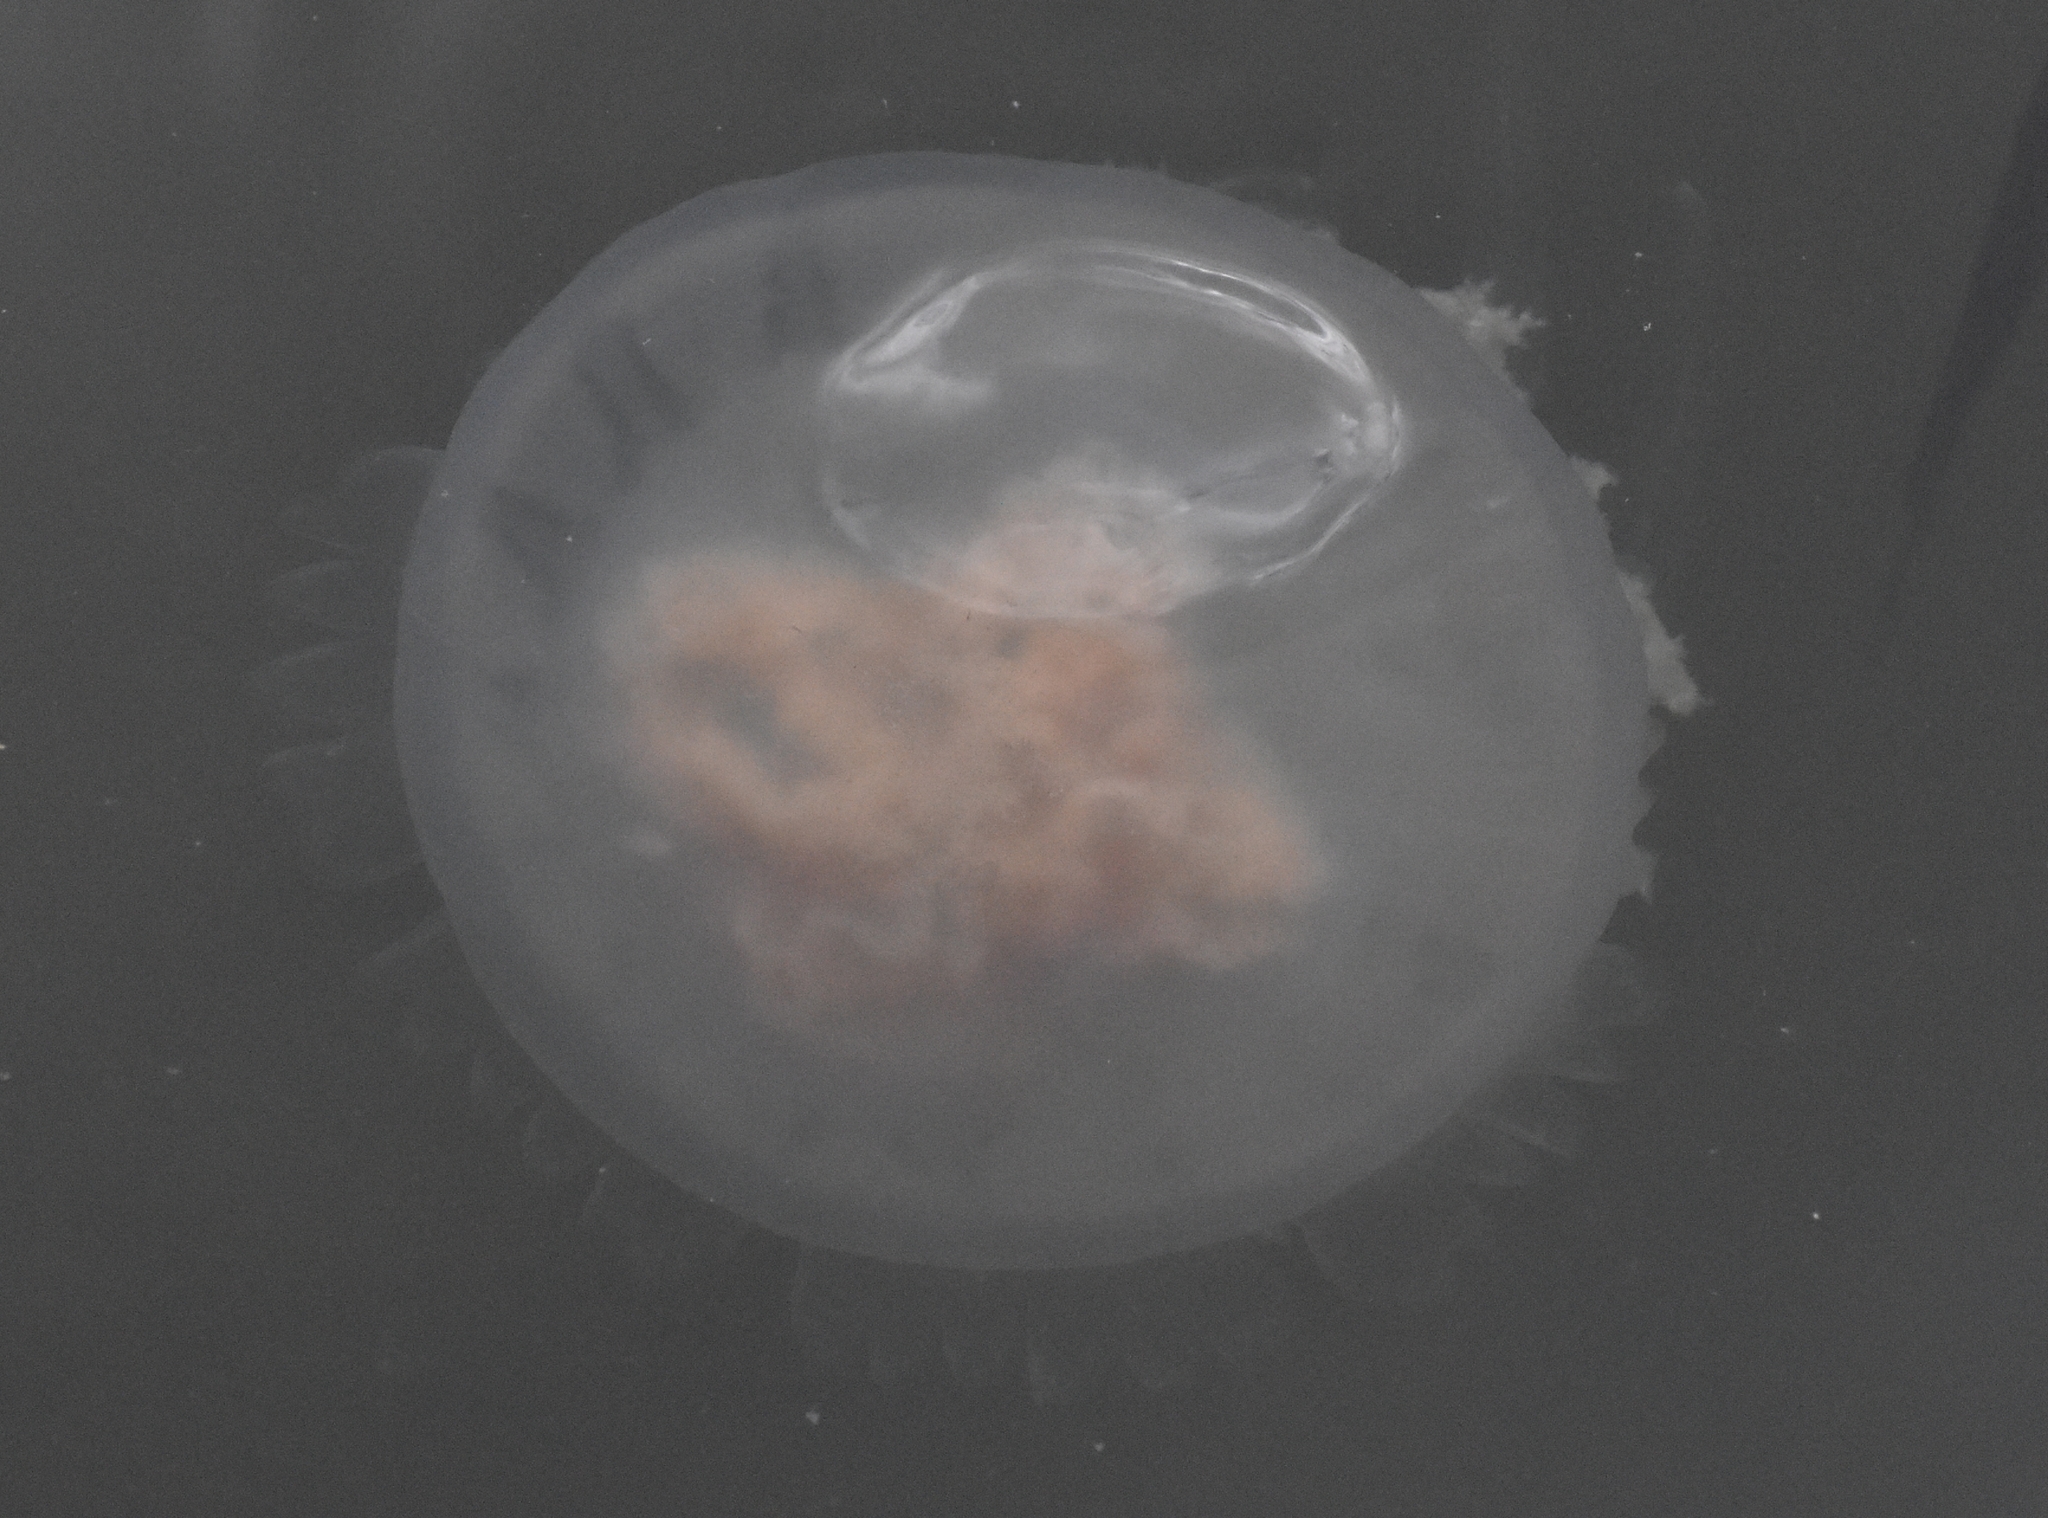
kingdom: Animalia
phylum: Cnidaria
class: Scyphozoa
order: Rhizostomeae
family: Rhizostomatidae
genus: Rhopilema
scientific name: Rhopilema verrilli
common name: Mushroom cap jellyfish
